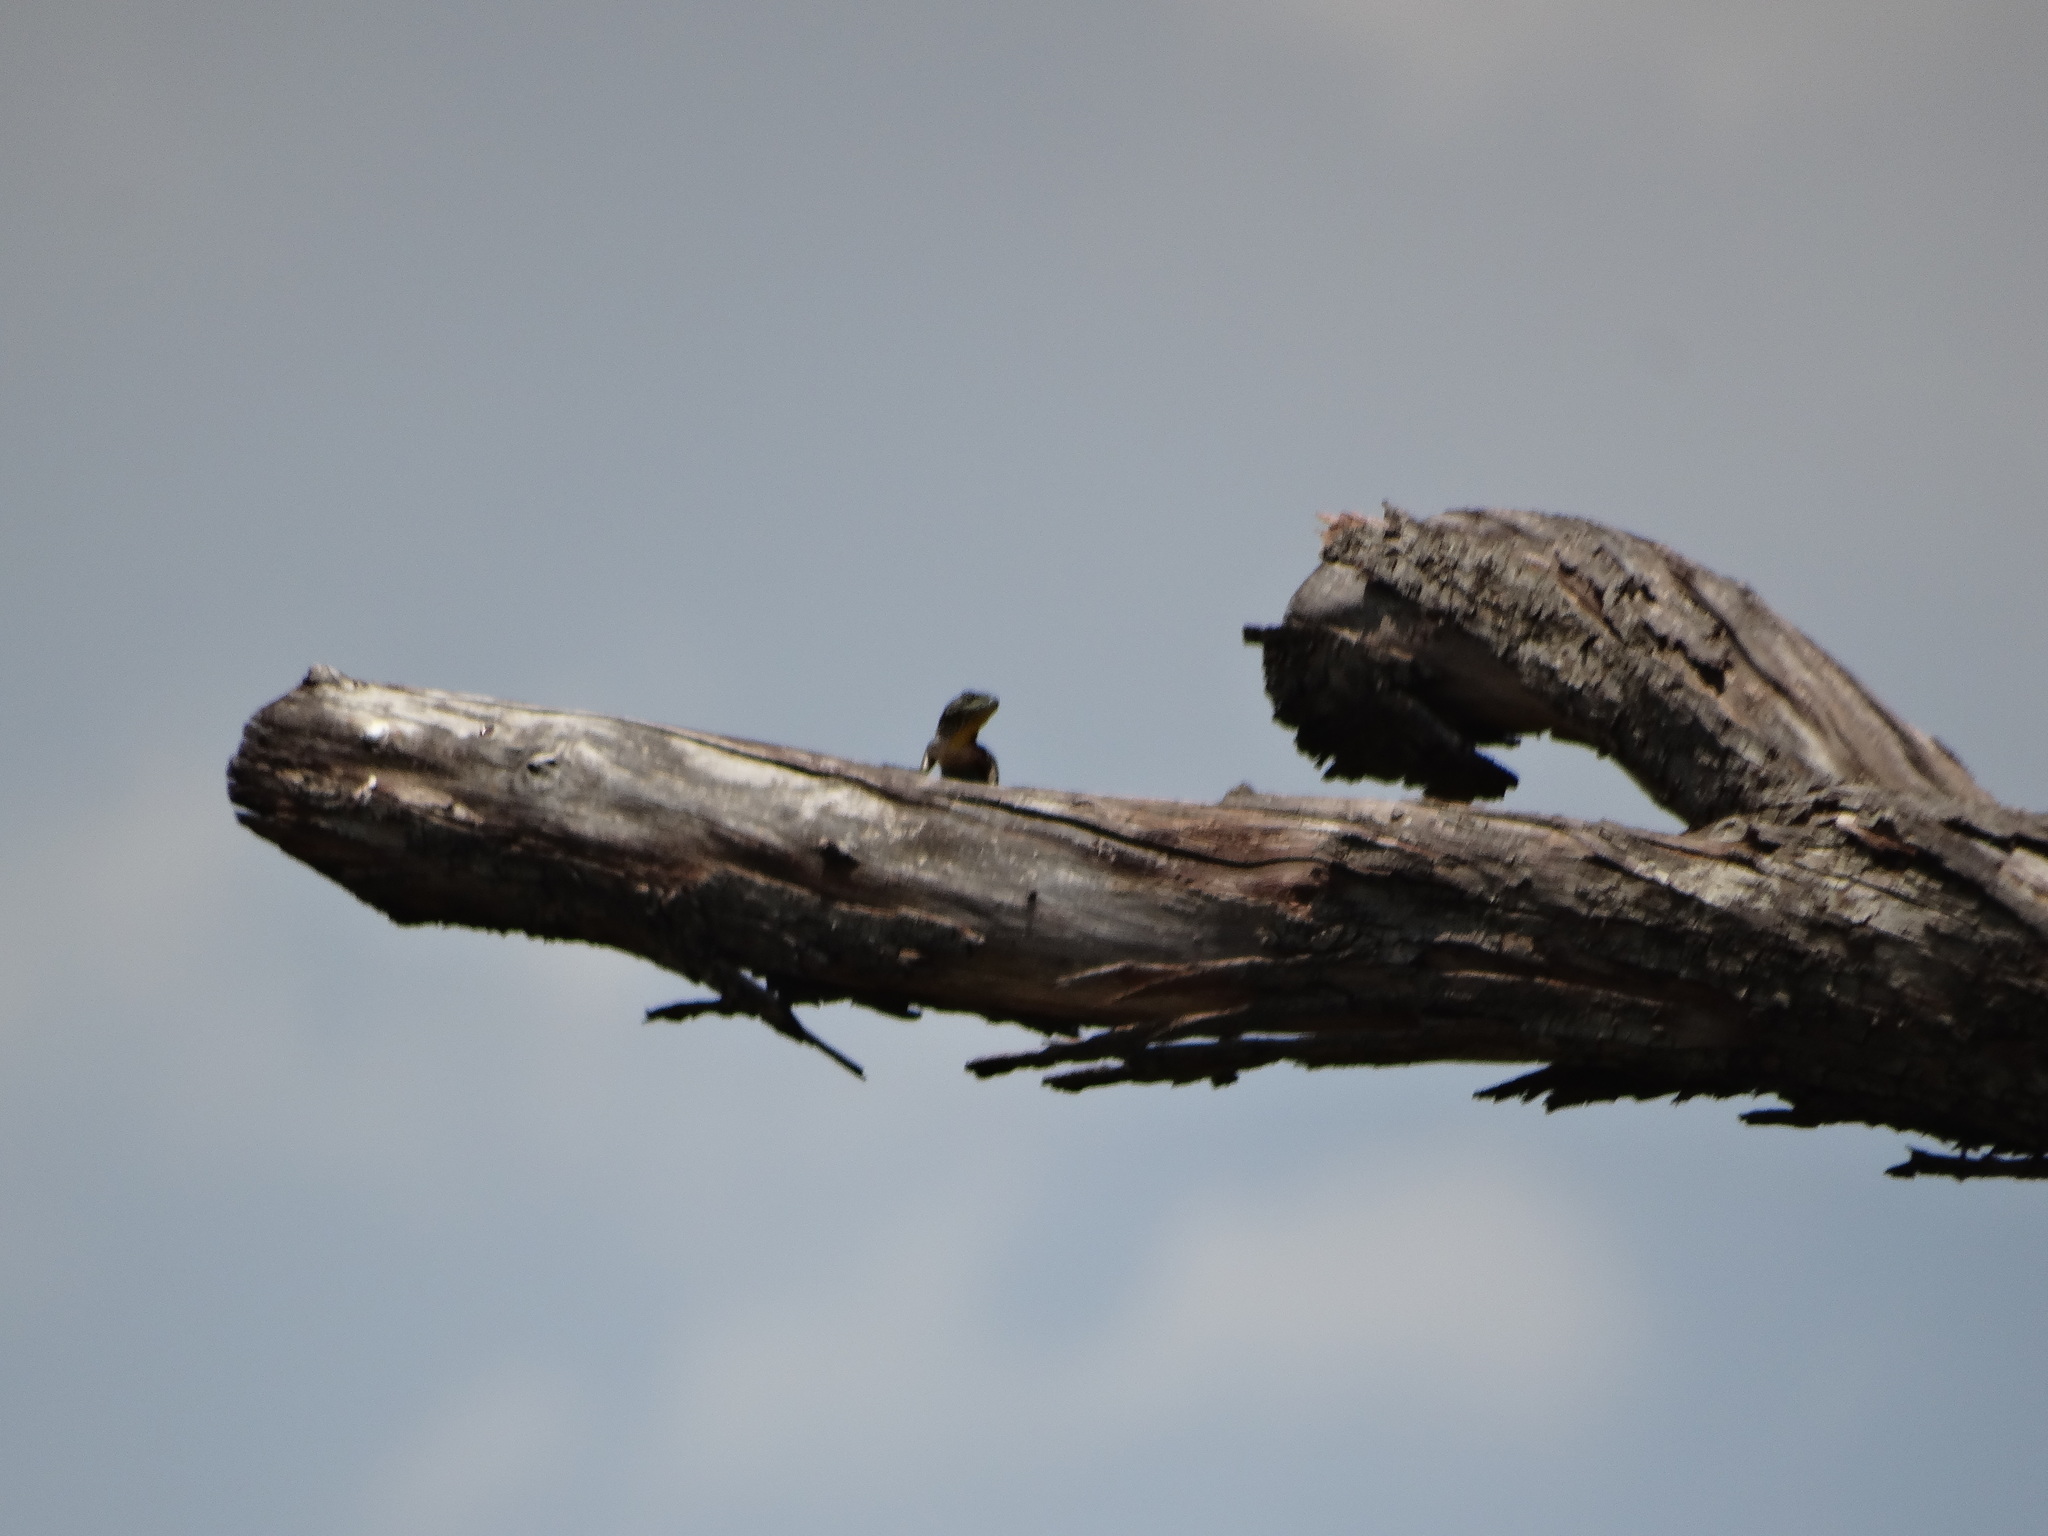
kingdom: Animalia
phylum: Chordata
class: Squamata
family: Phrynosomatidae
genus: Sceloporus
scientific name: Sceloporus grammicus
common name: Mesquite lizard
